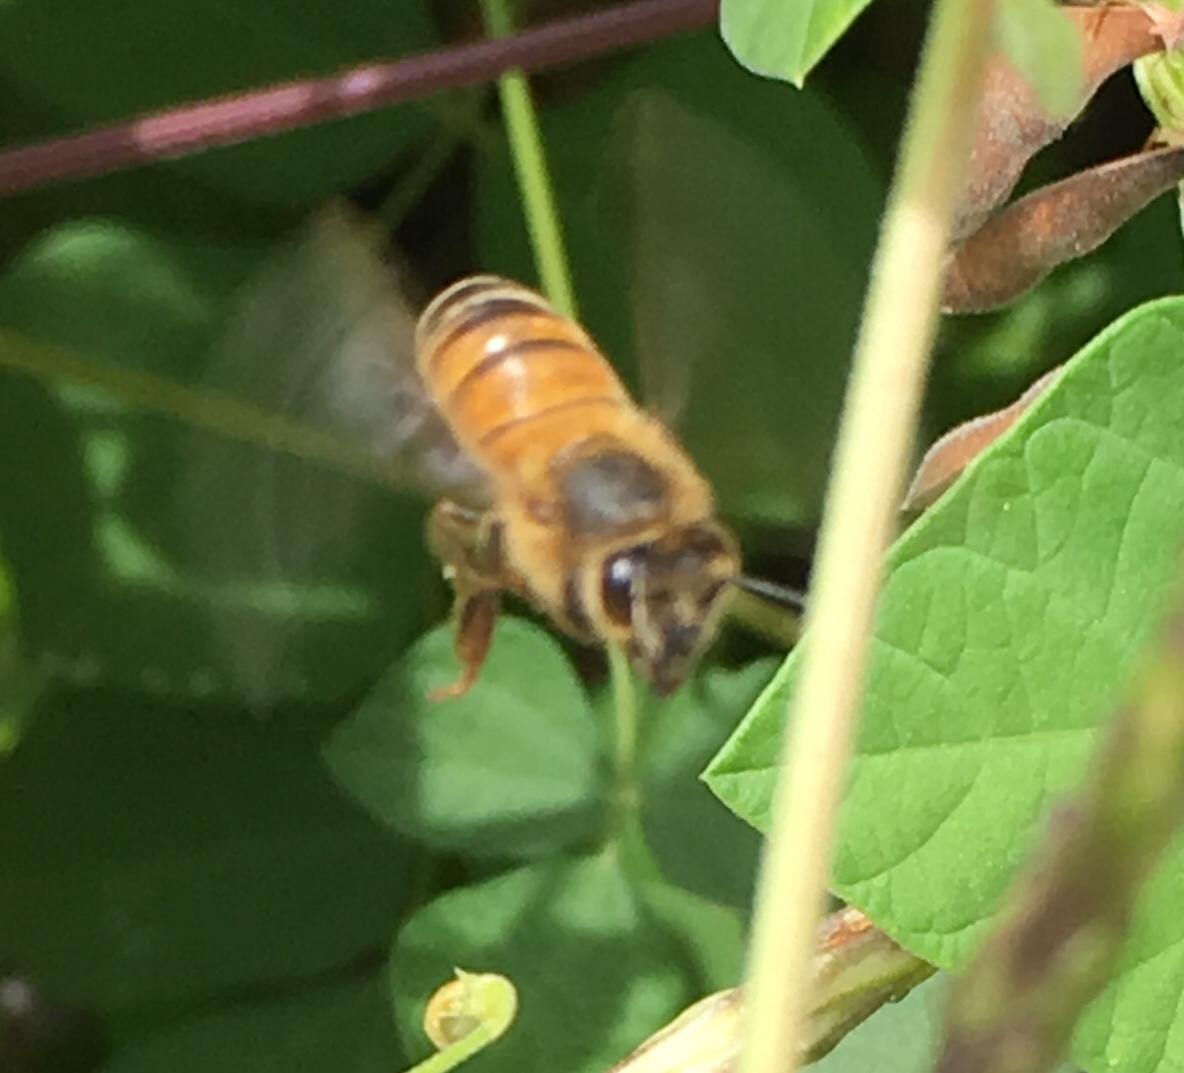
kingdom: Animalia
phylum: Arthropoda
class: Insecta
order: Hymenoptera
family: Apidae
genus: Apis
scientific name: Apis mellifera
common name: Honey bee
